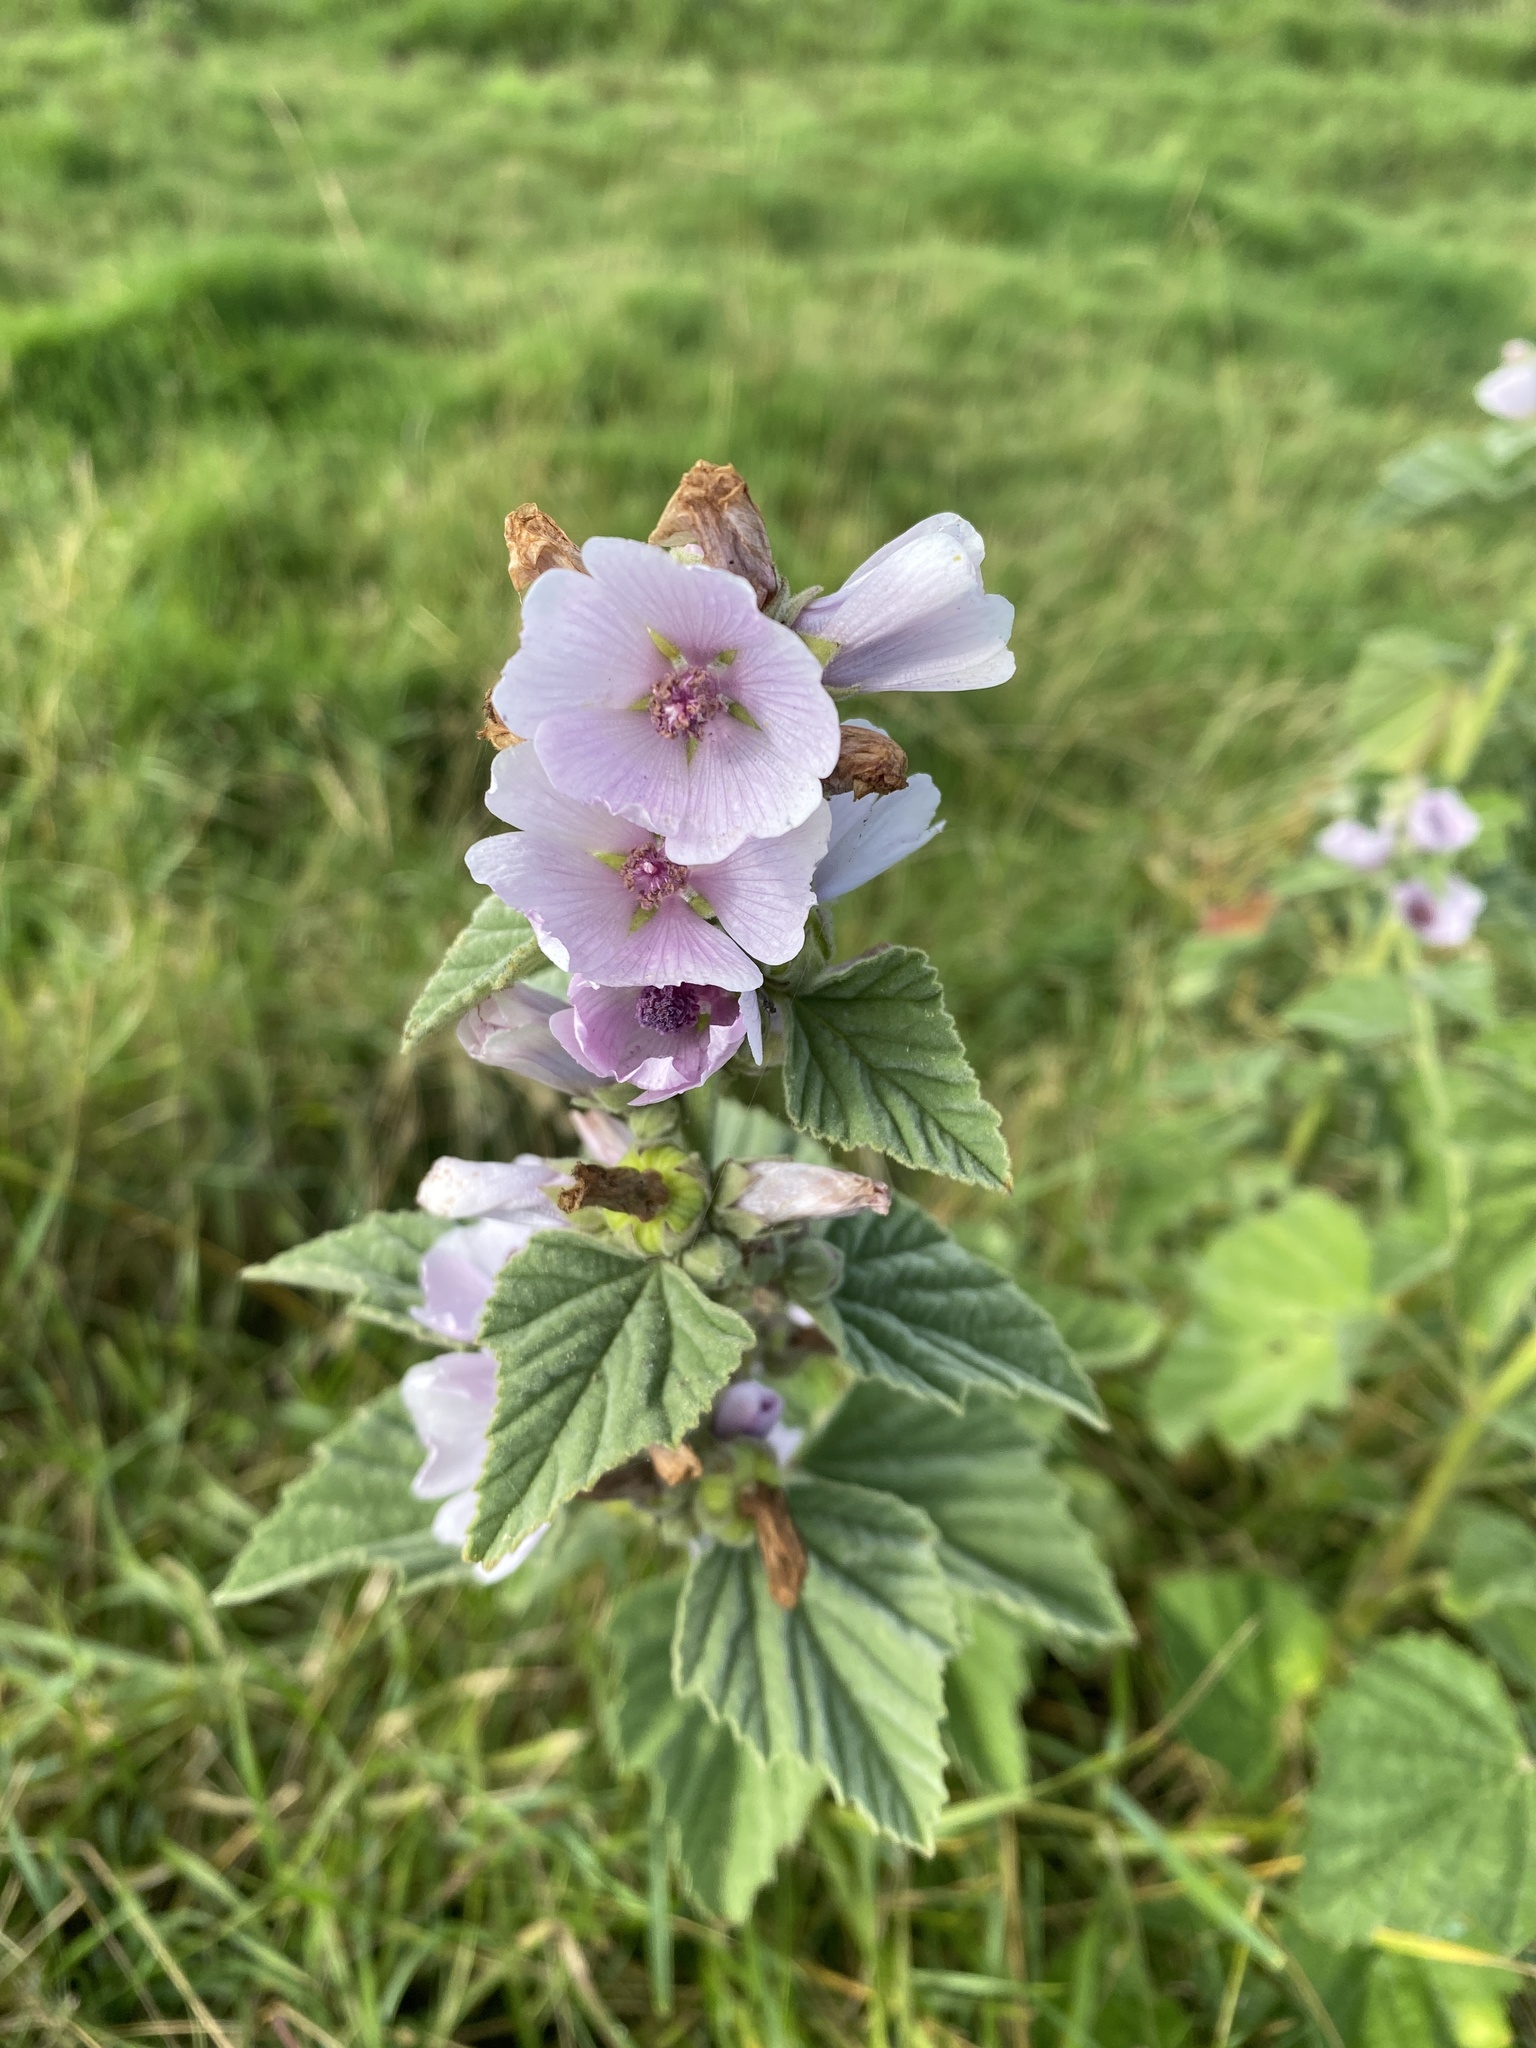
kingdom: Plantae
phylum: Tracheophyta
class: Magnoliopsida
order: Malvales
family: Malvaceae
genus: Althaea
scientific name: Althaea officinalis
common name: Marsh-mallow
